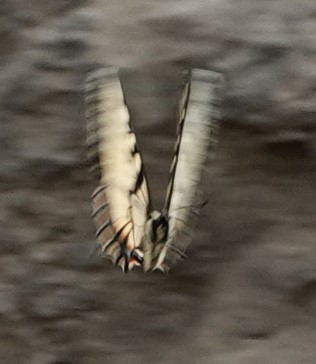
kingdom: Animalia
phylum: Arthropoda
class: Insecta
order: Lepidoptera
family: Papilionidae
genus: Papilio
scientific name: Papilio glaucus
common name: Tiger swallowtail
